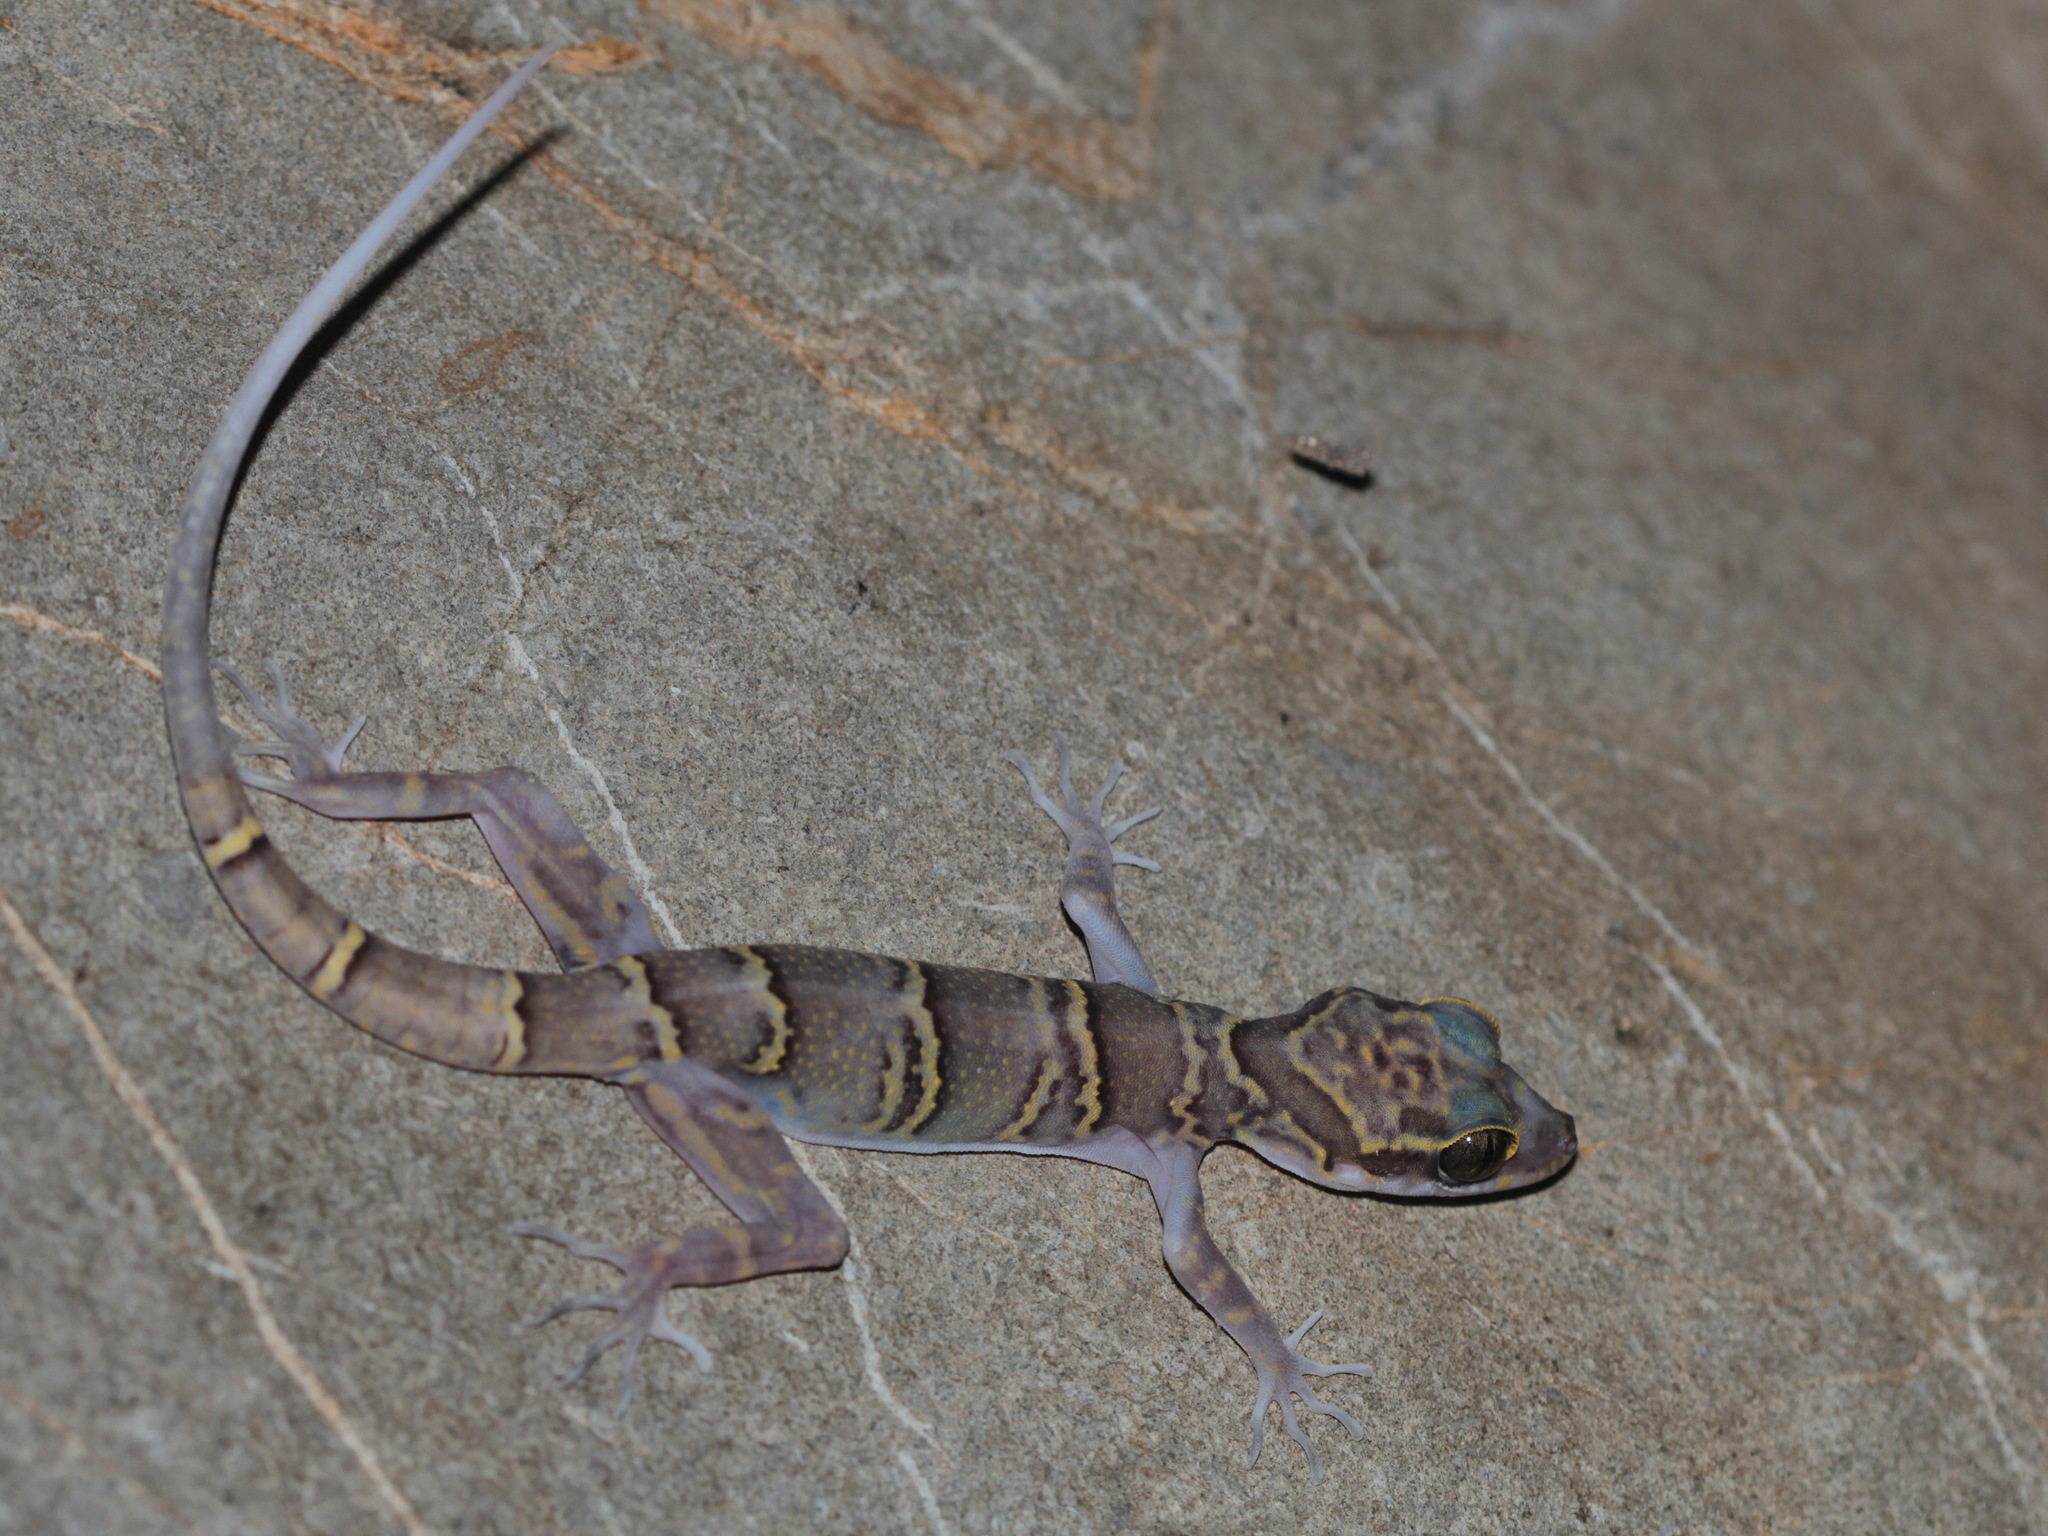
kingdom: Animalia
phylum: Chordata
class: Squamata
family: Gekkonidae
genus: Cyrtodactylus
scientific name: Cyrtodactylus chanhomeae
